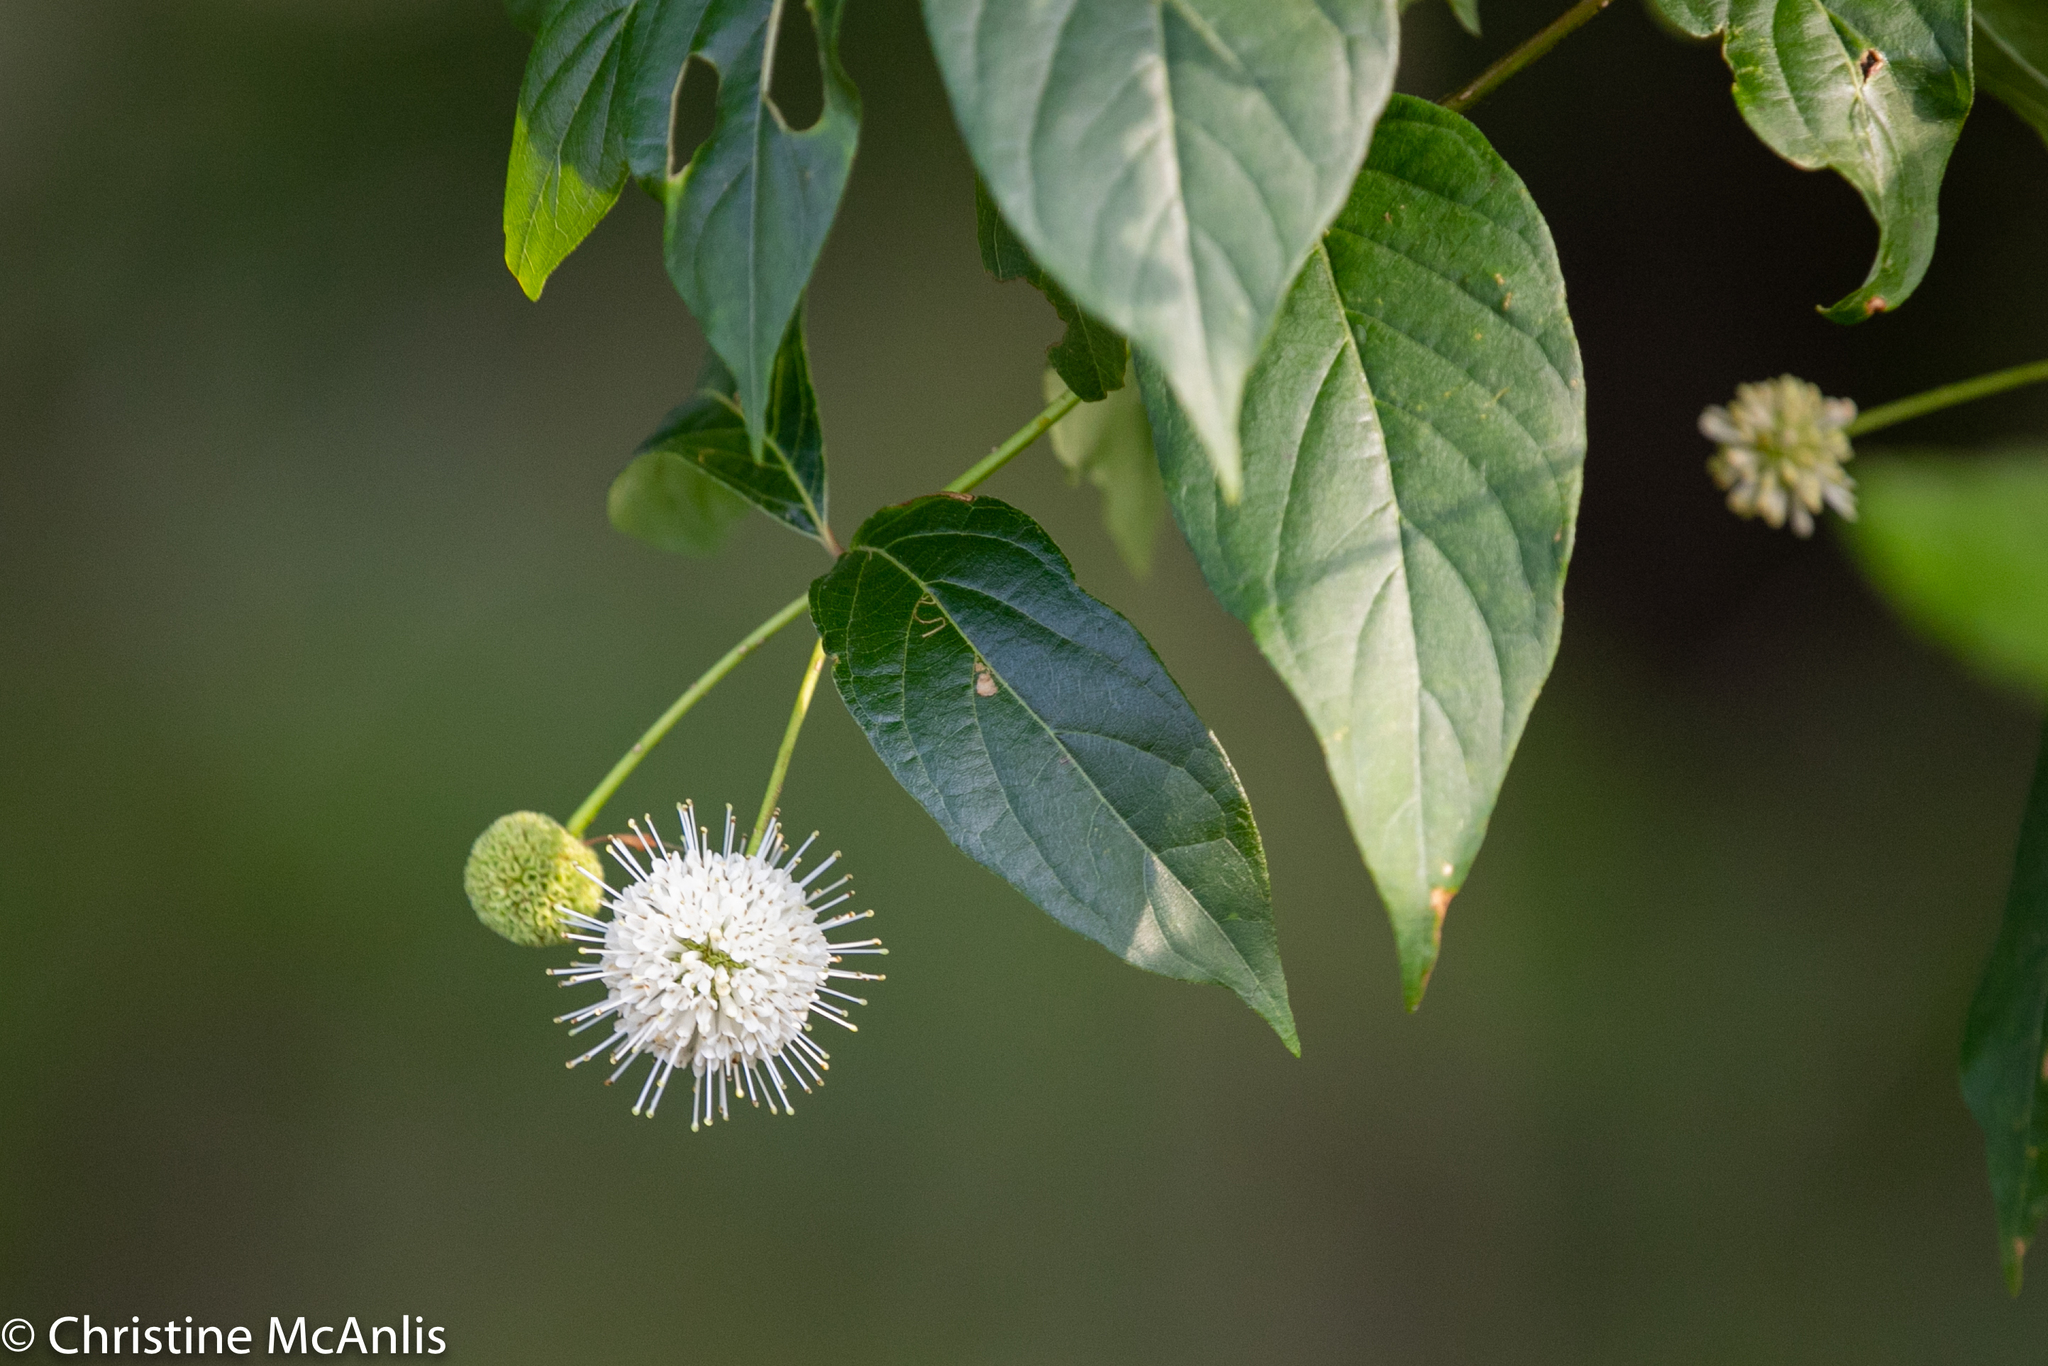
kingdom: Plantae
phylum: Tracheophyta
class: Magnoliopsida
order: Gentianales
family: Rubiaceae
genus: Cephalanthus
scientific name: Cephalanthus occidentalis
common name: Button-willow
